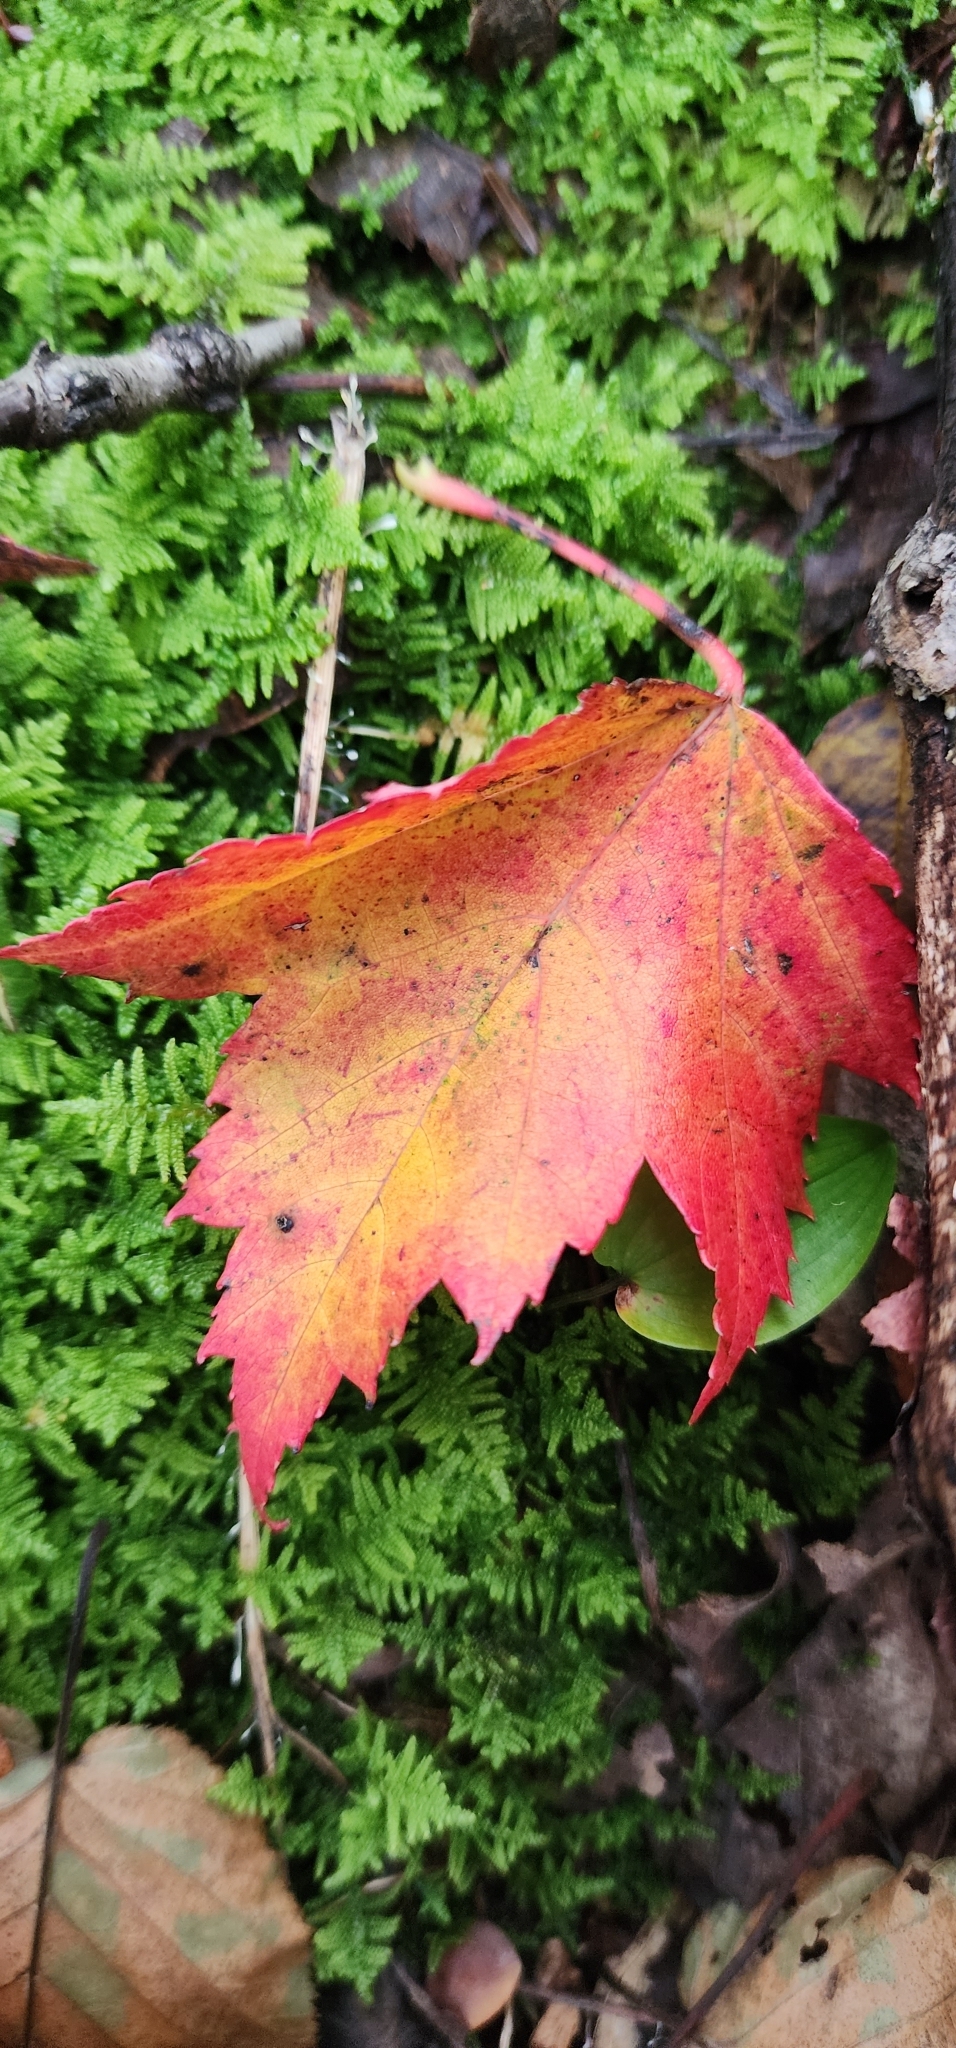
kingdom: Plantae
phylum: Tracheophyta
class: Magnoliopsida
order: Sapindales
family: Sapindaceae
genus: Acer
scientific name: Acer rubrum
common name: Red maple
